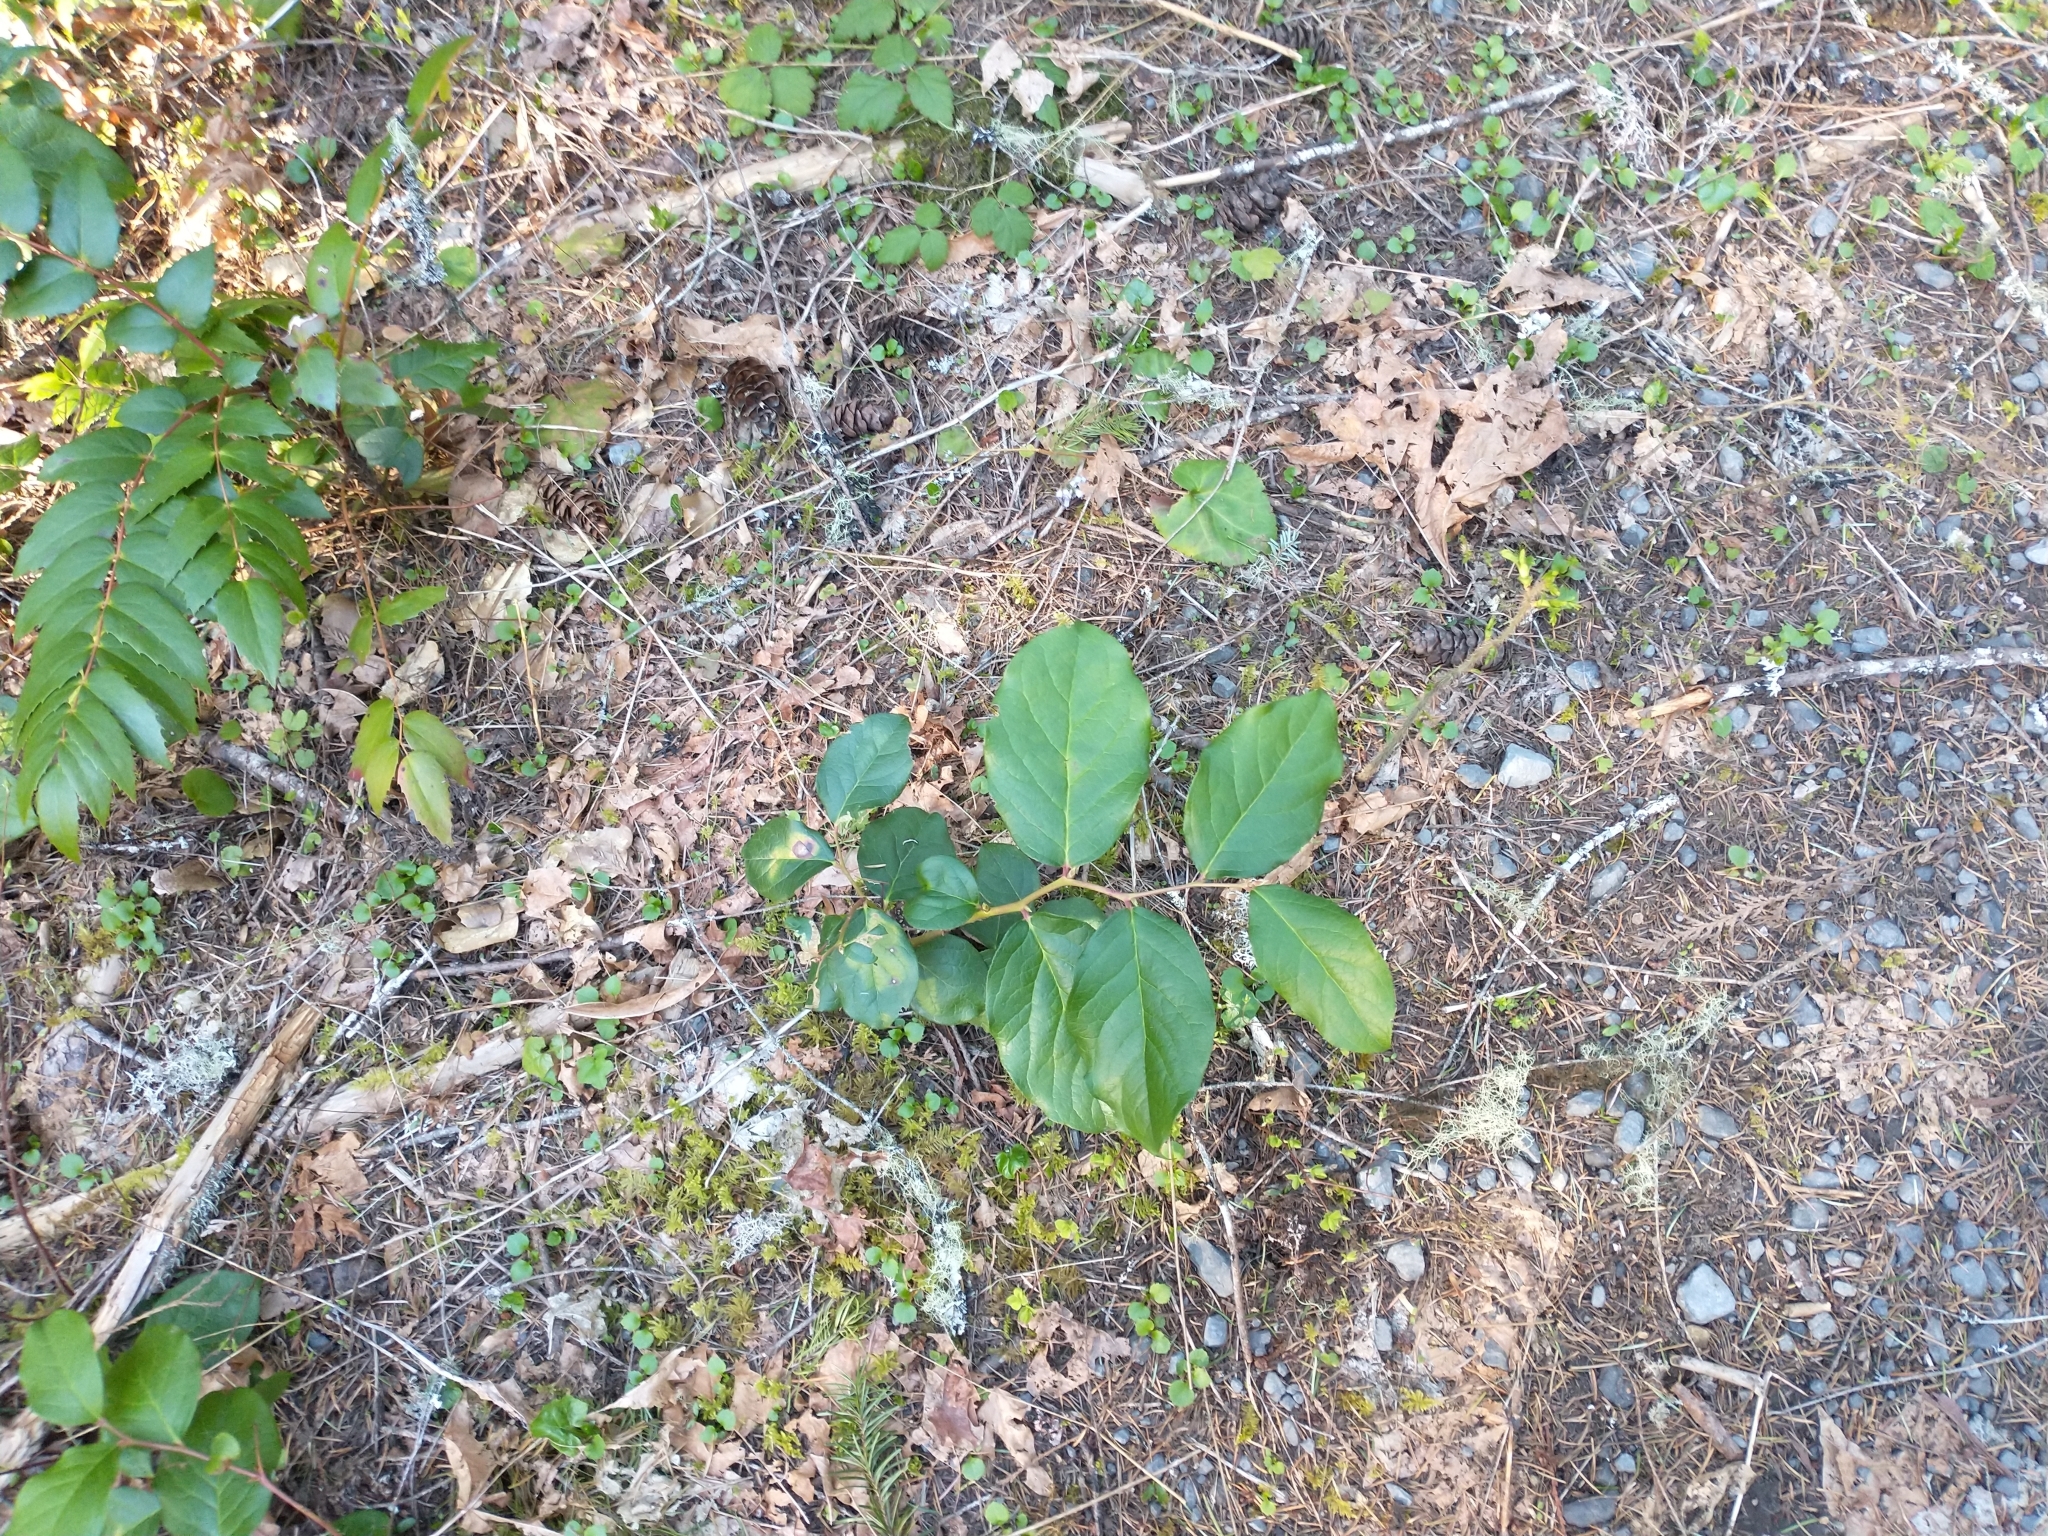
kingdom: Plantae
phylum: Tracheophyta
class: Magnoliopsida
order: Ericales
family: Ericaceae
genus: Gaultheria
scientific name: Gaultheria shallon
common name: Shallon
